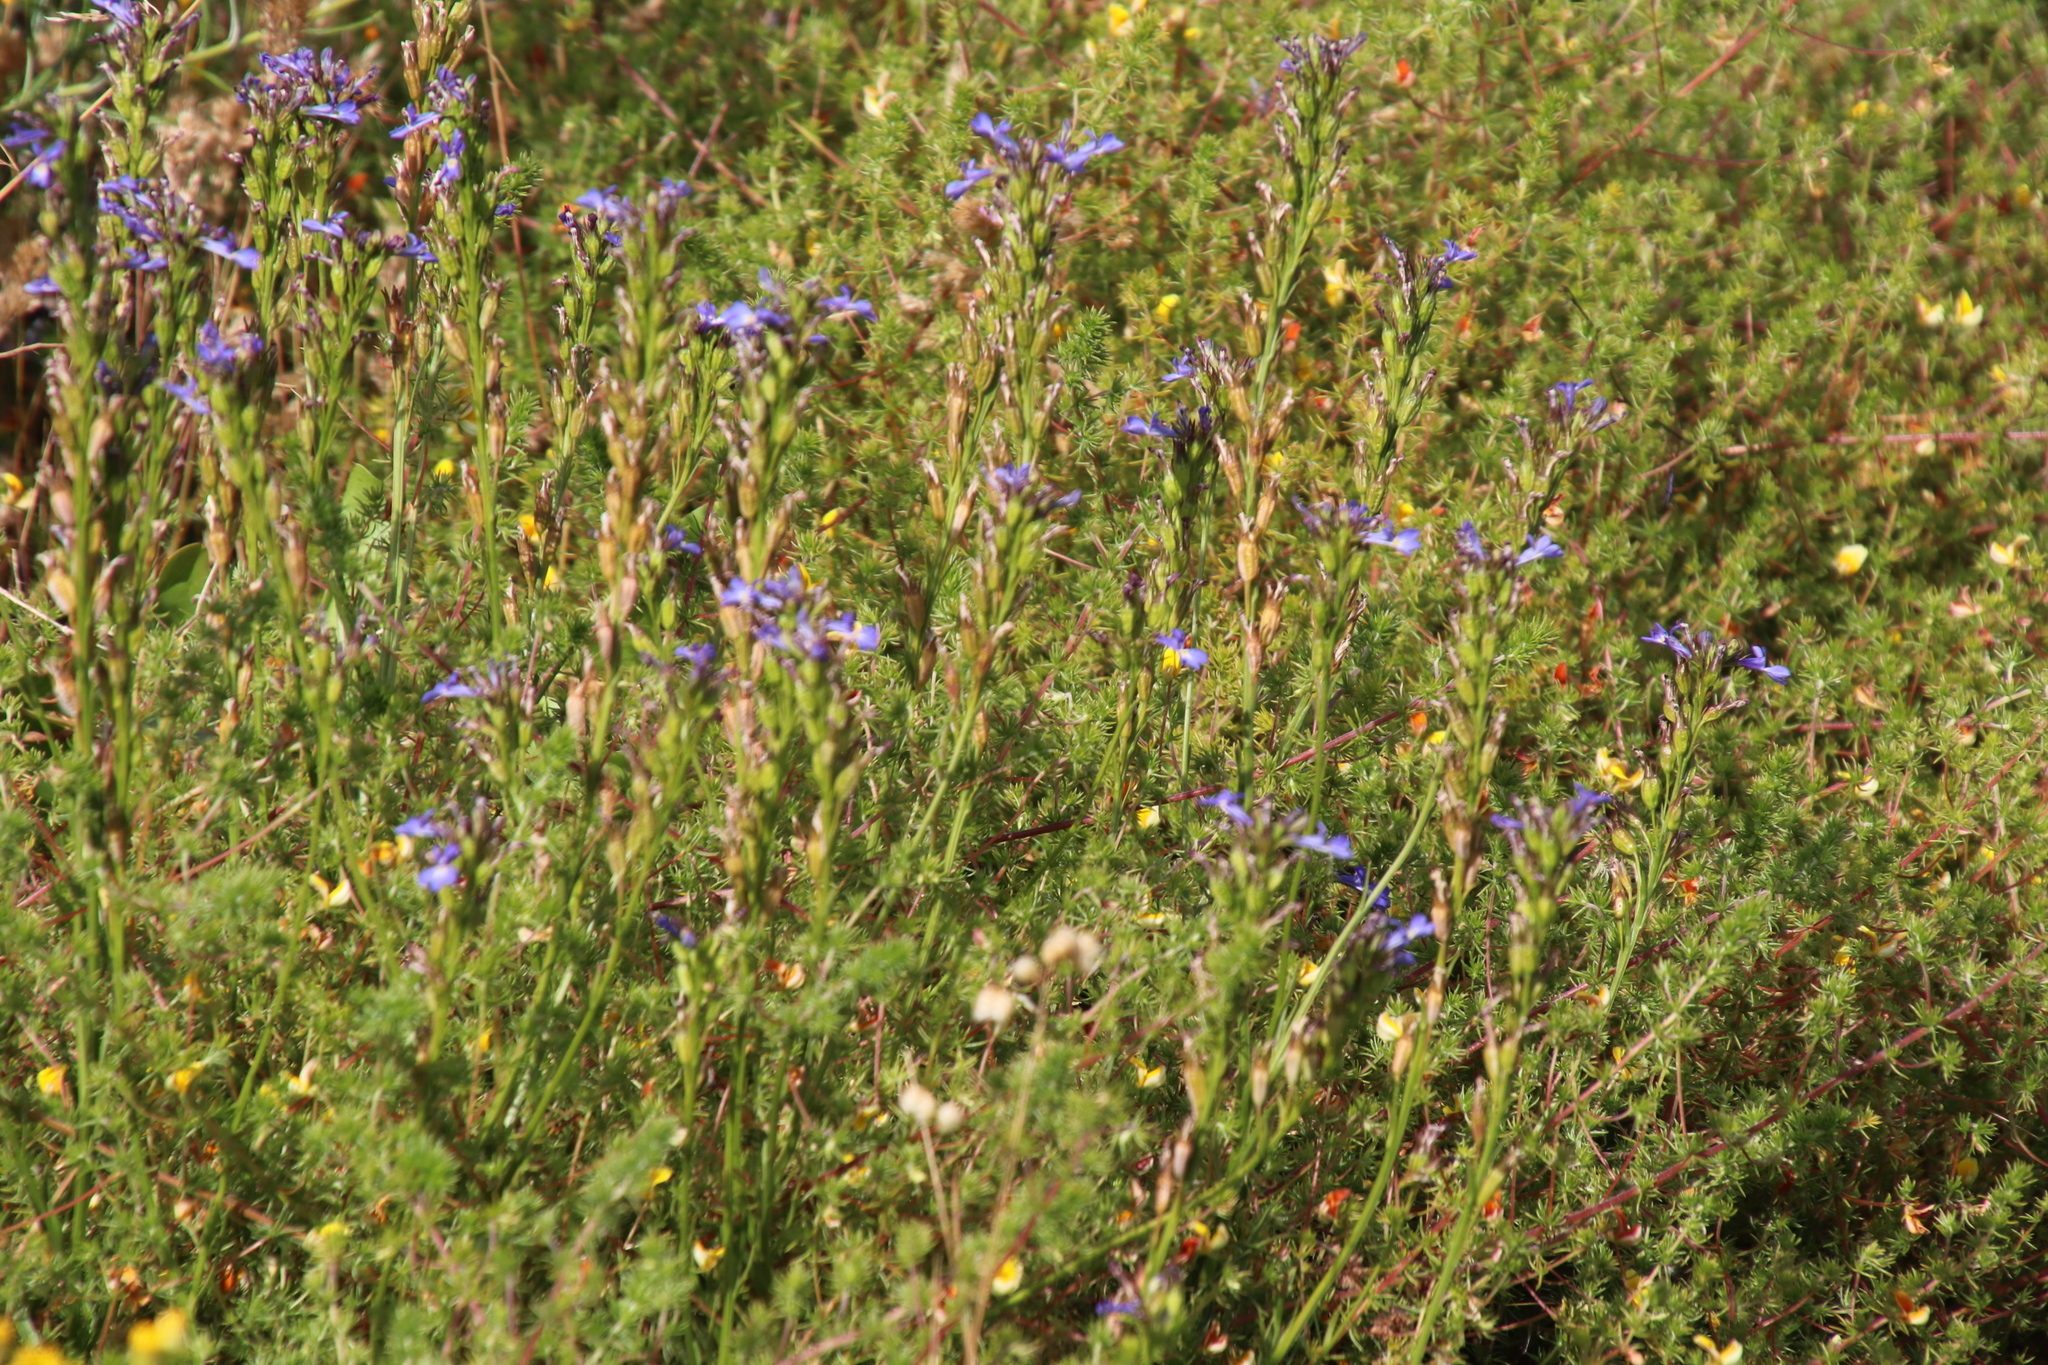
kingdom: Plantae
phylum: Tracheophyta
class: Magnoliopsida
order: Asterales
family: Campanulaceae
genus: Lobelia
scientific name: Lobelia comosa
